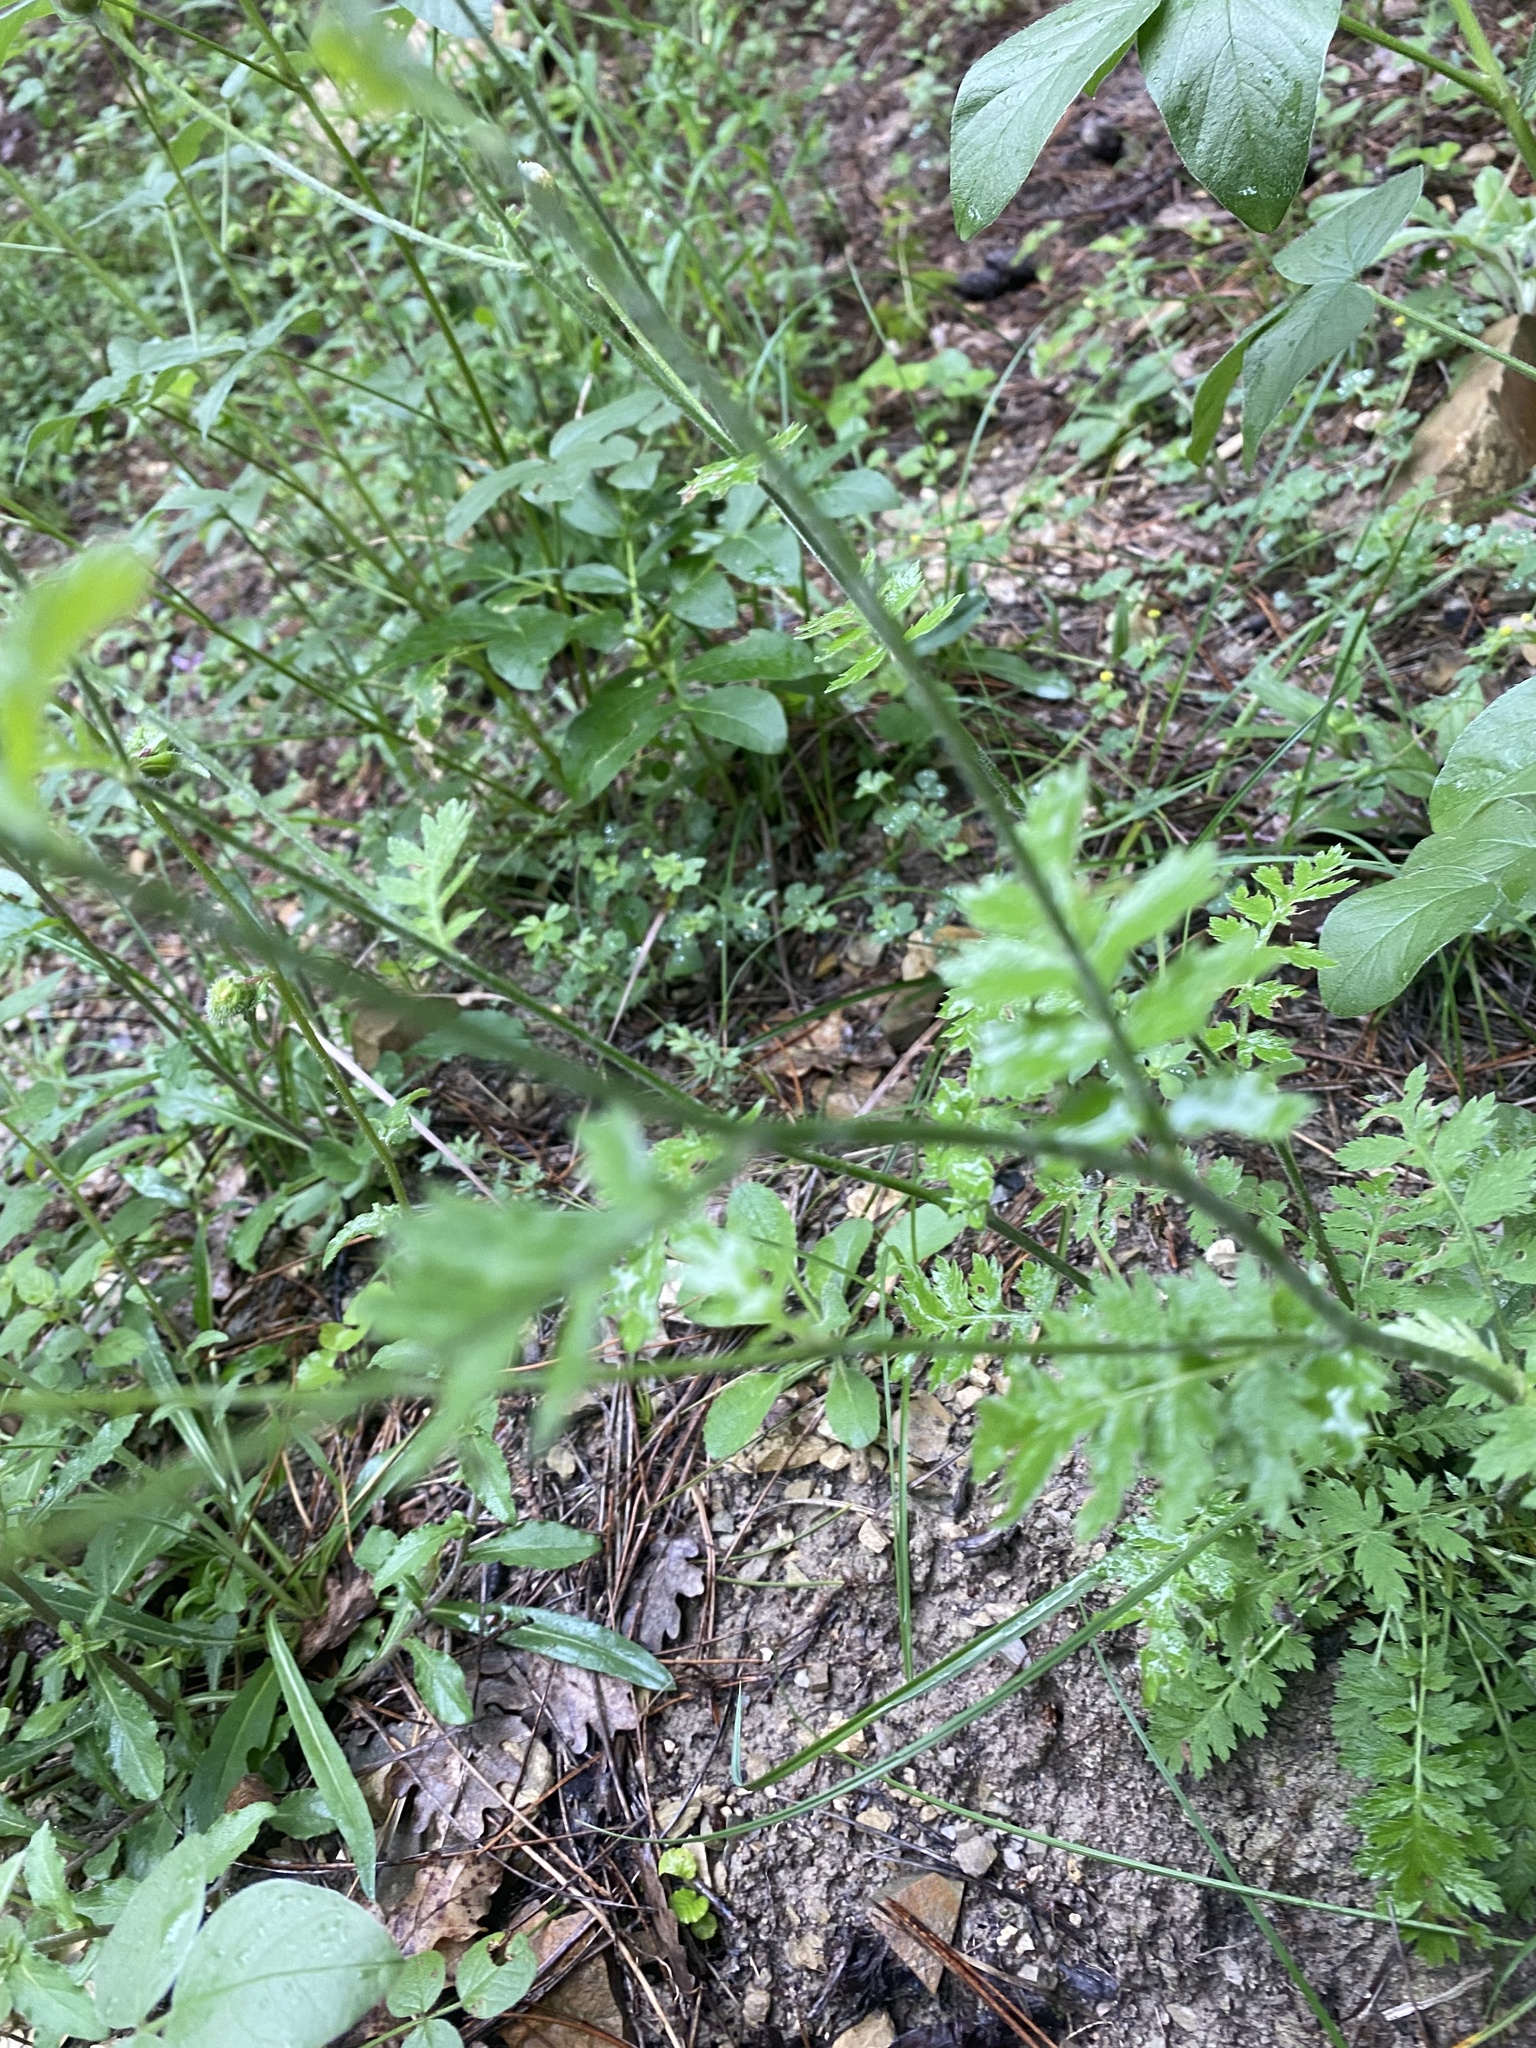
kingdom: Plantae
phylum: Tracheophyta
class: Magnoliopsida
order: Asterales
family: Asteraceae
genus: Tanacetum
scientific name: Tanacetum poteriifolium
